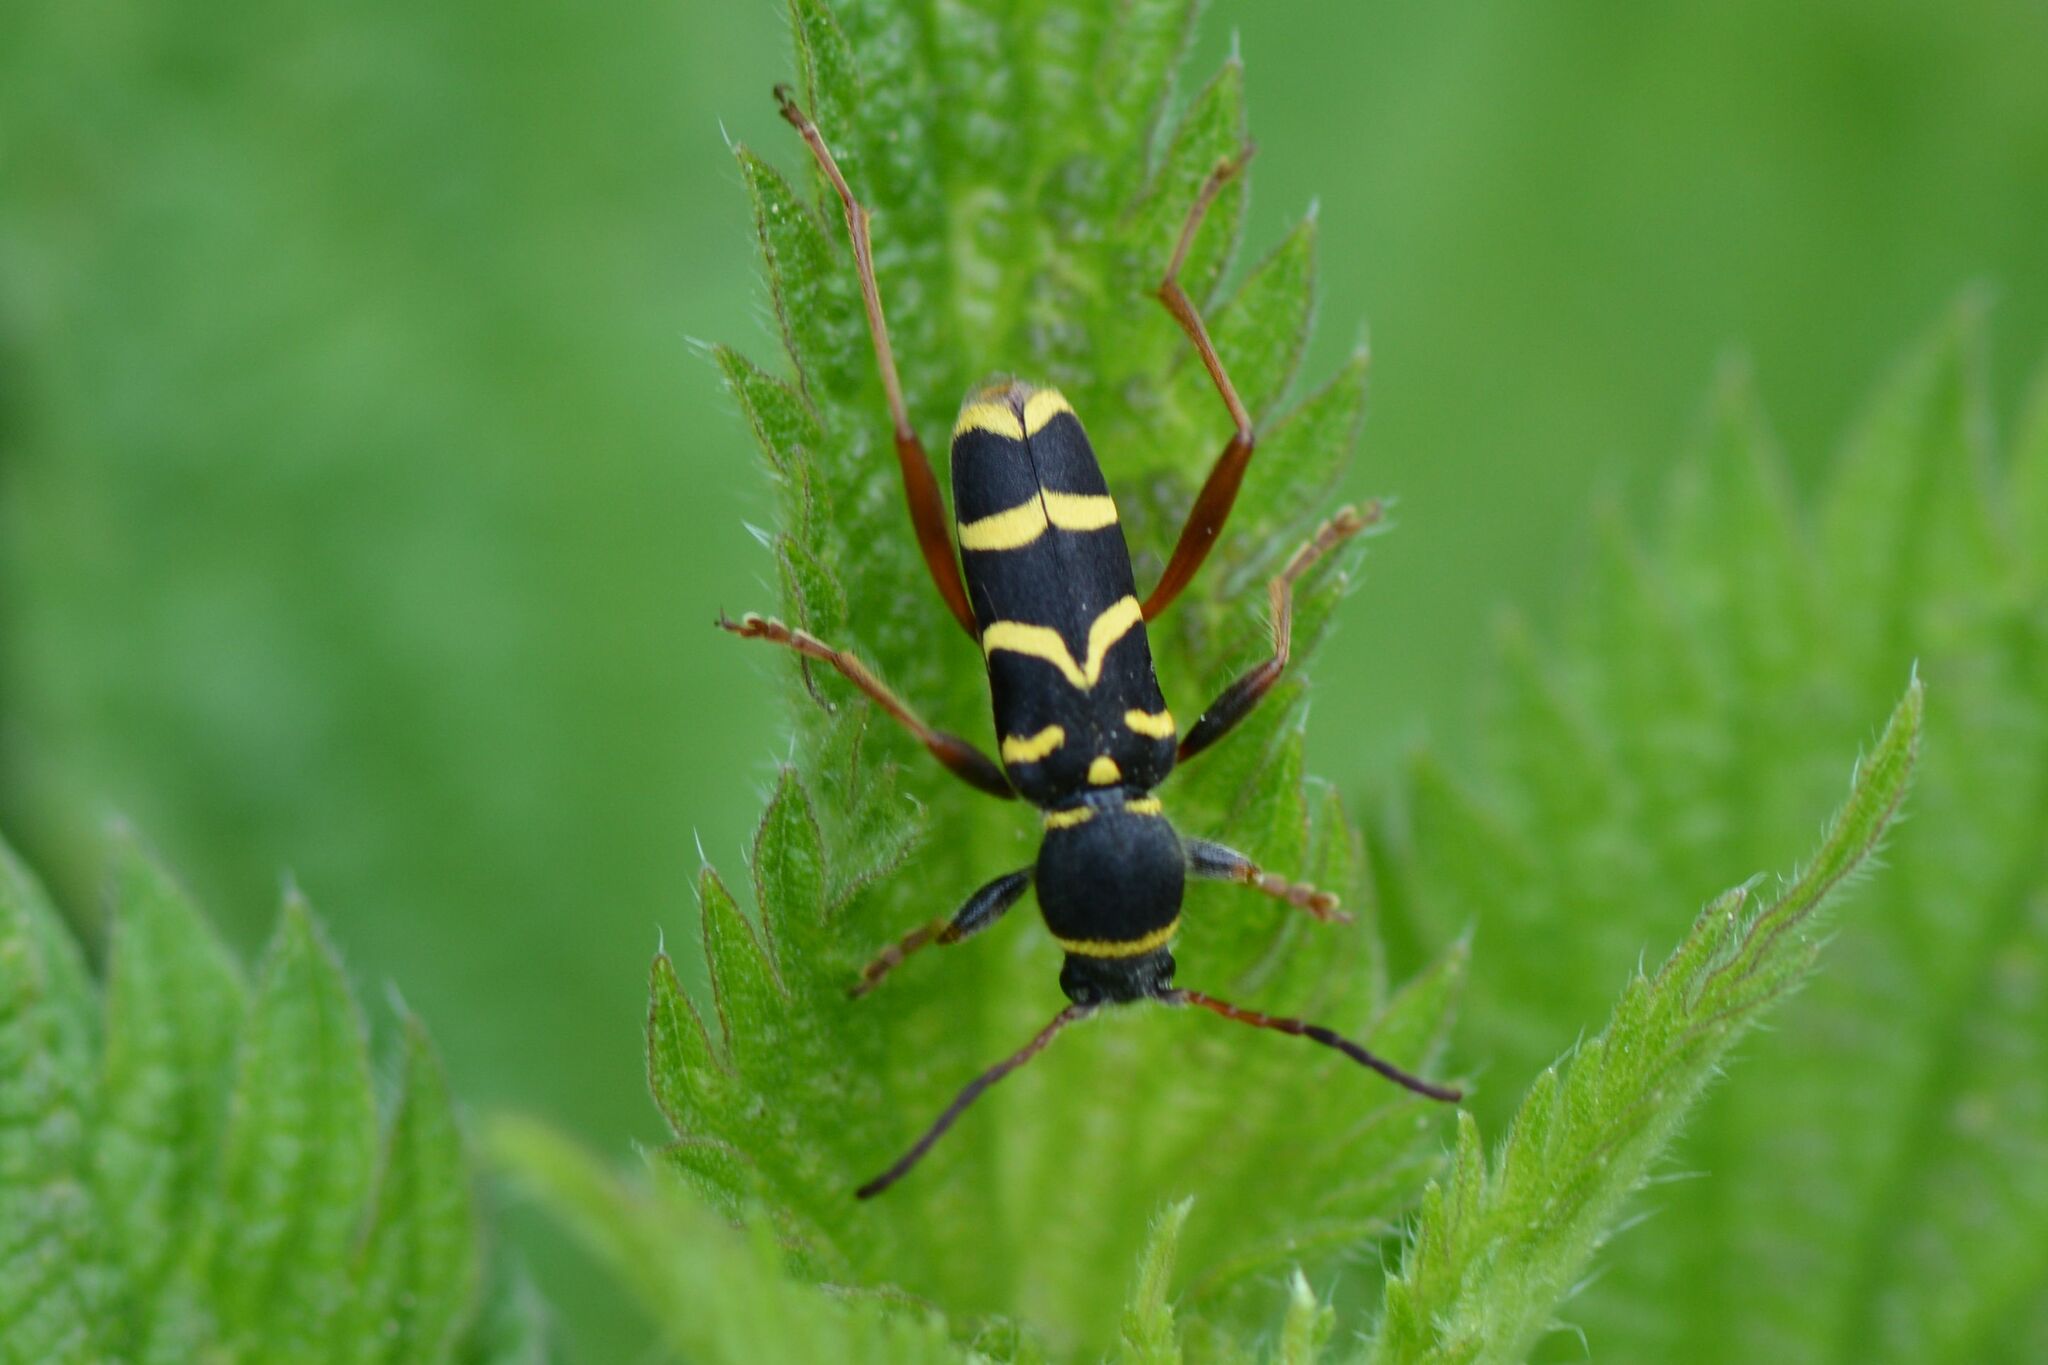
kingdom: Animalia
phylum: Arthropoda
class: Insecta
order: Coleoptera
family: Cerambycidae
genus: Clytus
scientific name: Clytus arietis
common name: Wasp beetle
